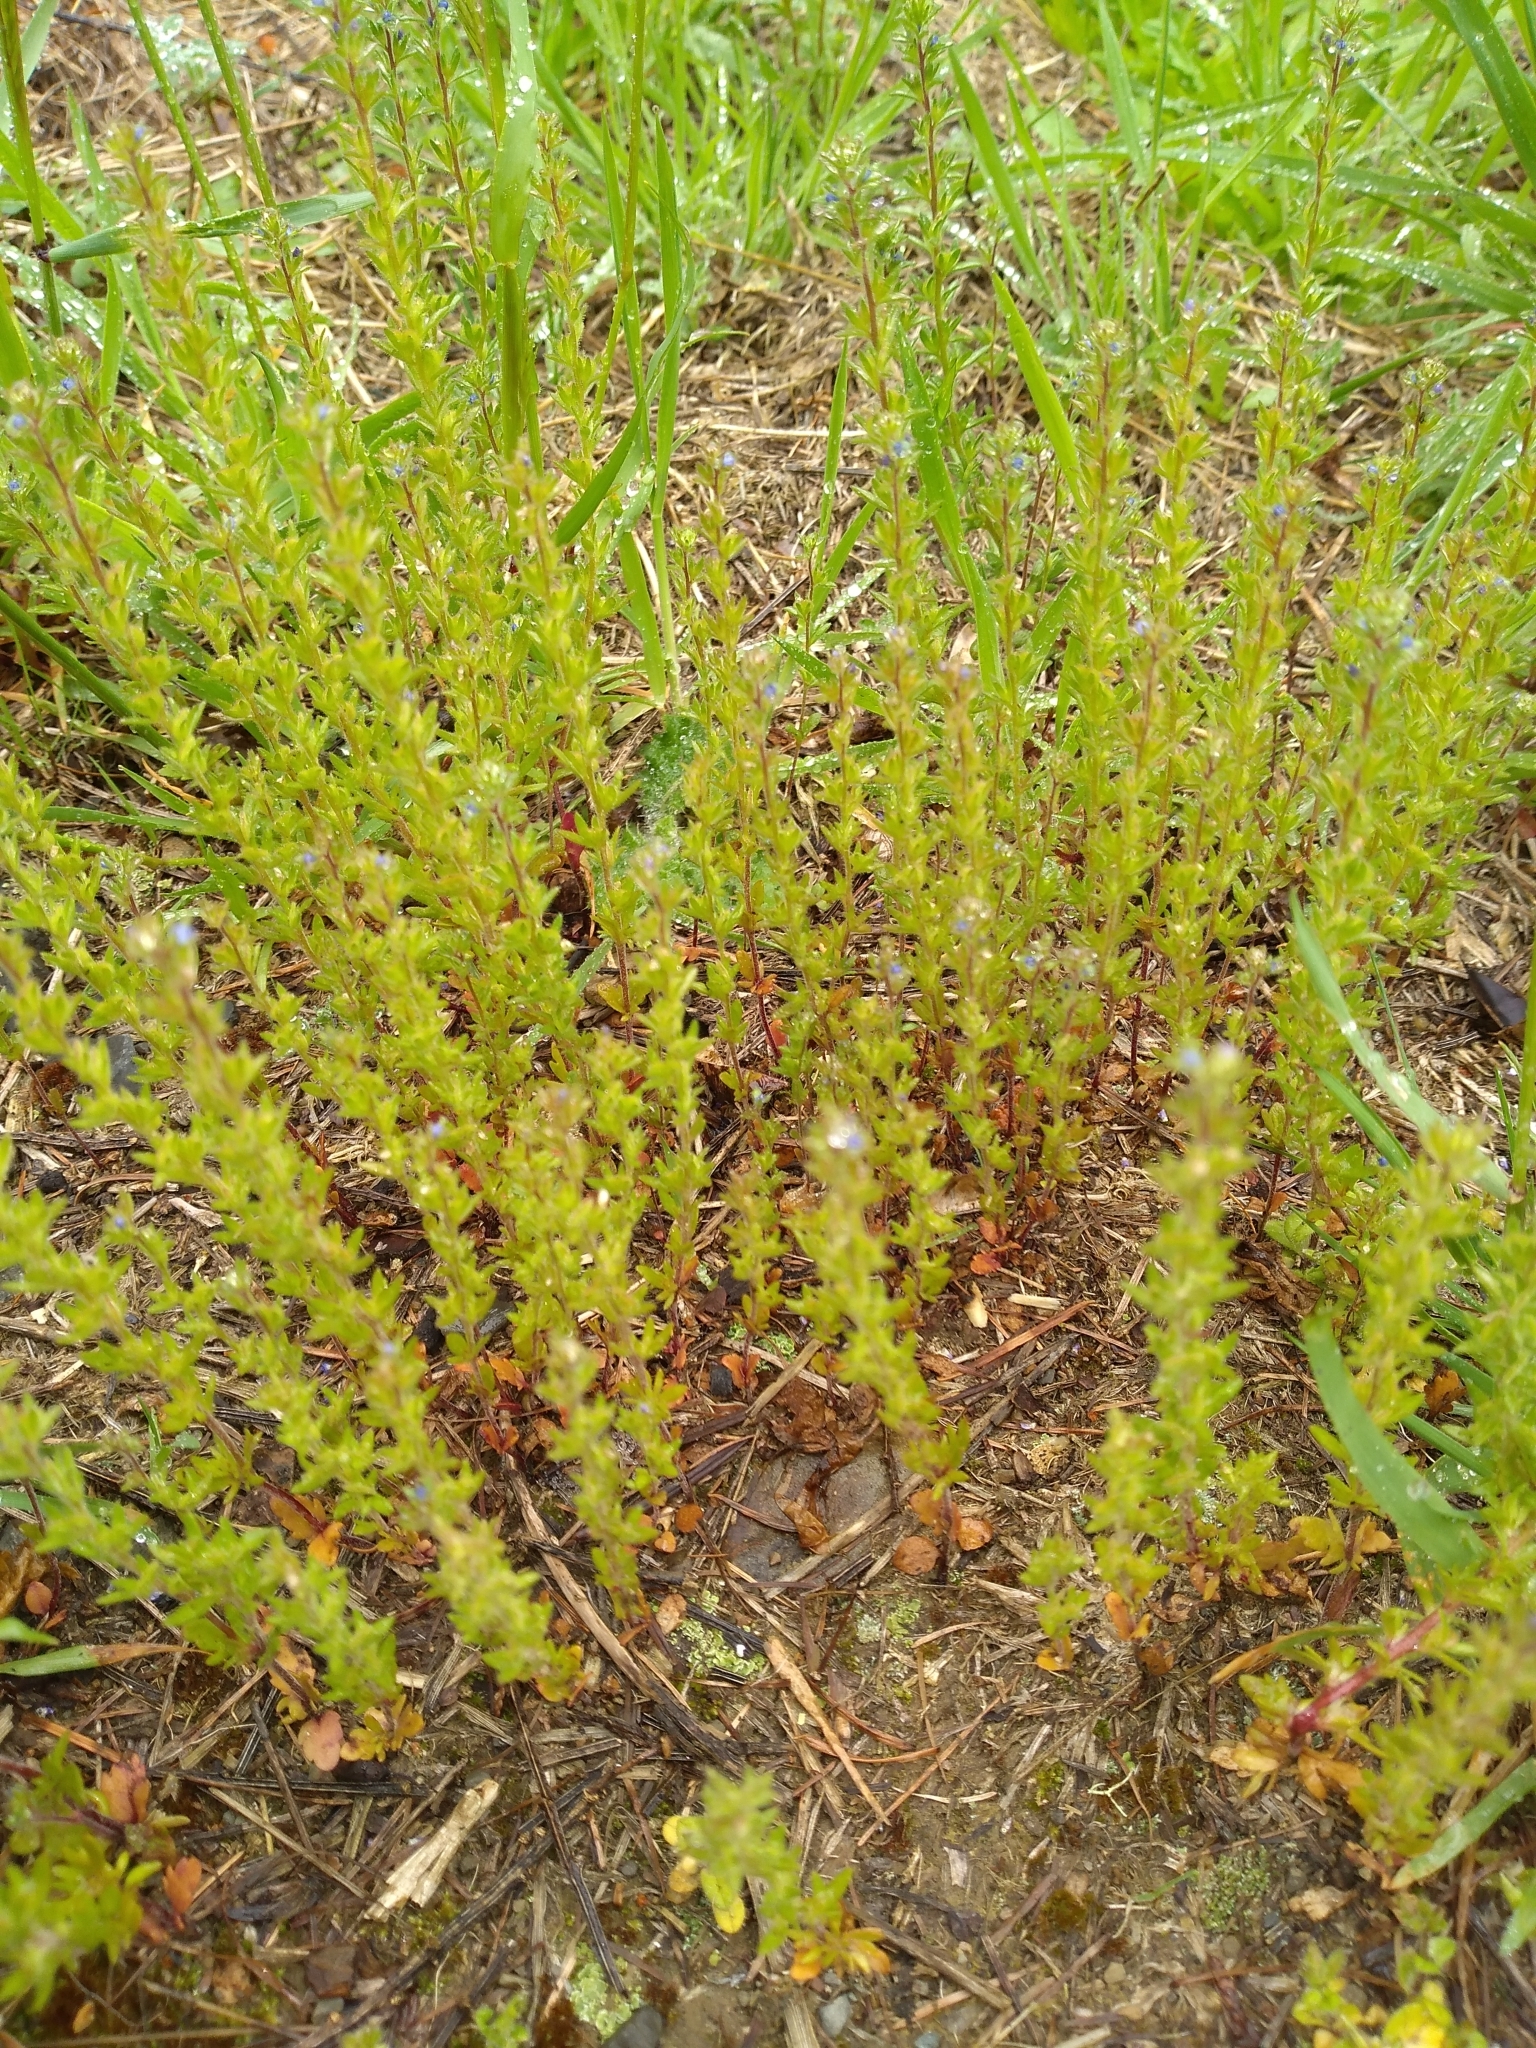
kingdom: Plantae
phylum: Tracheophyta
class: Magnoliopsida
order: Lamiales
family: Plantaginaceae
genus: Veronica
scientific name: Veronica verna
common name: Spring speedwell
